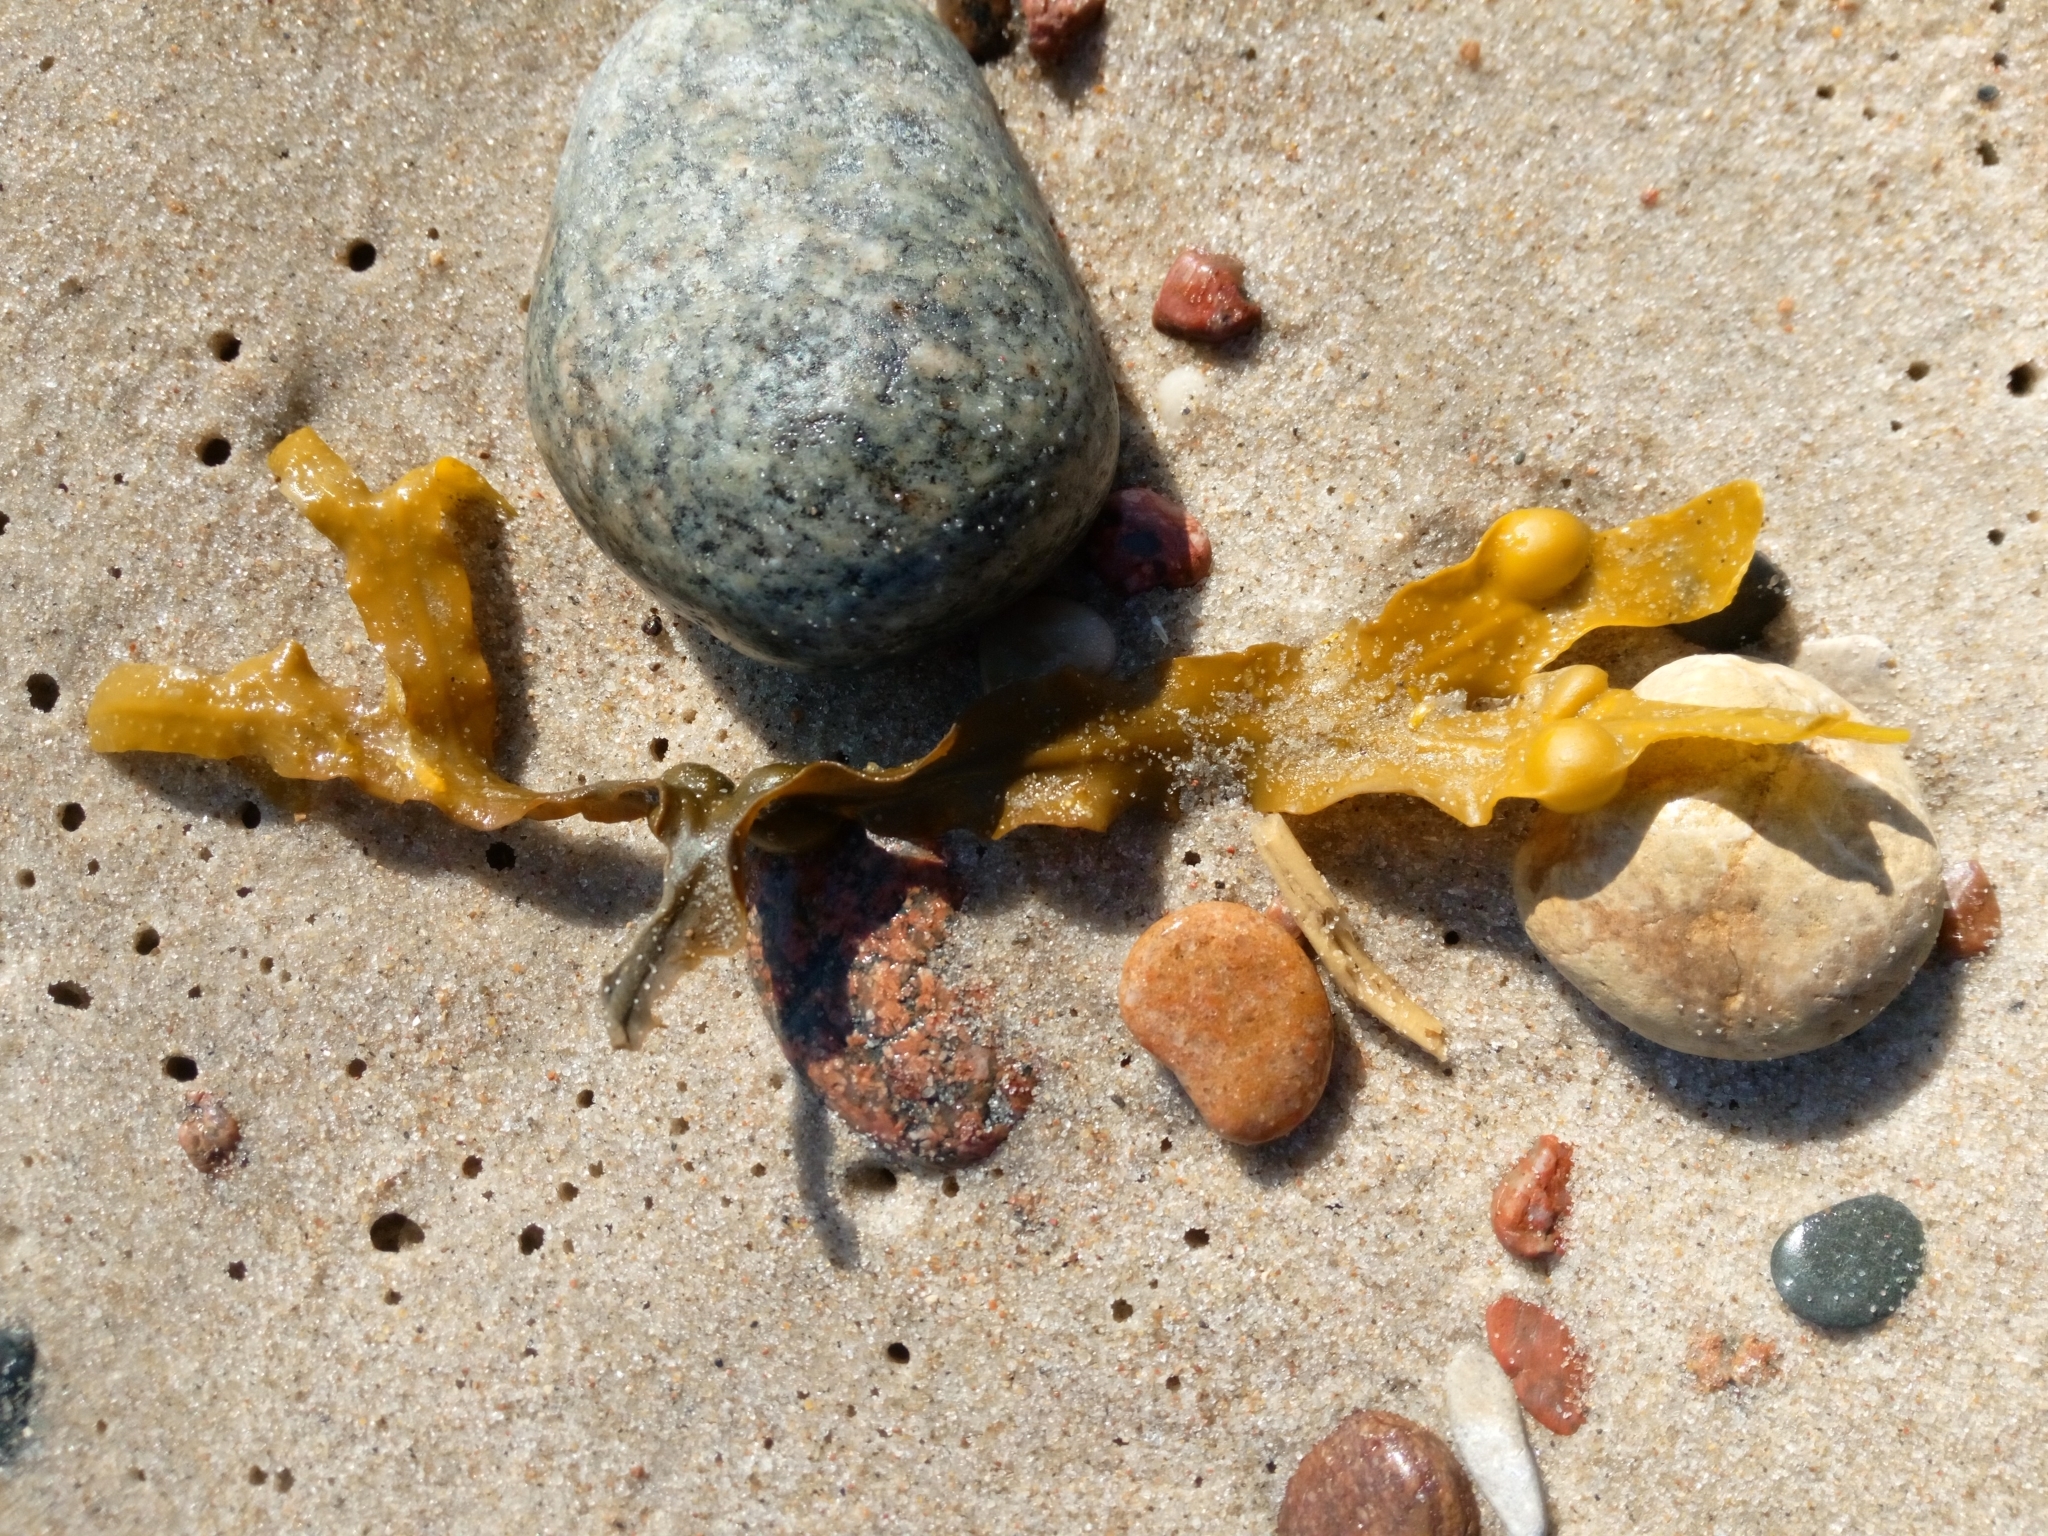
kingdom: Chromista
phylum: Ochrophyta
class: Phaeophyceae
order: Fucales
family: Fucaceae
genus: Fucus
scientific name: Fucus vesiculosus
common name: Bladder wrack
